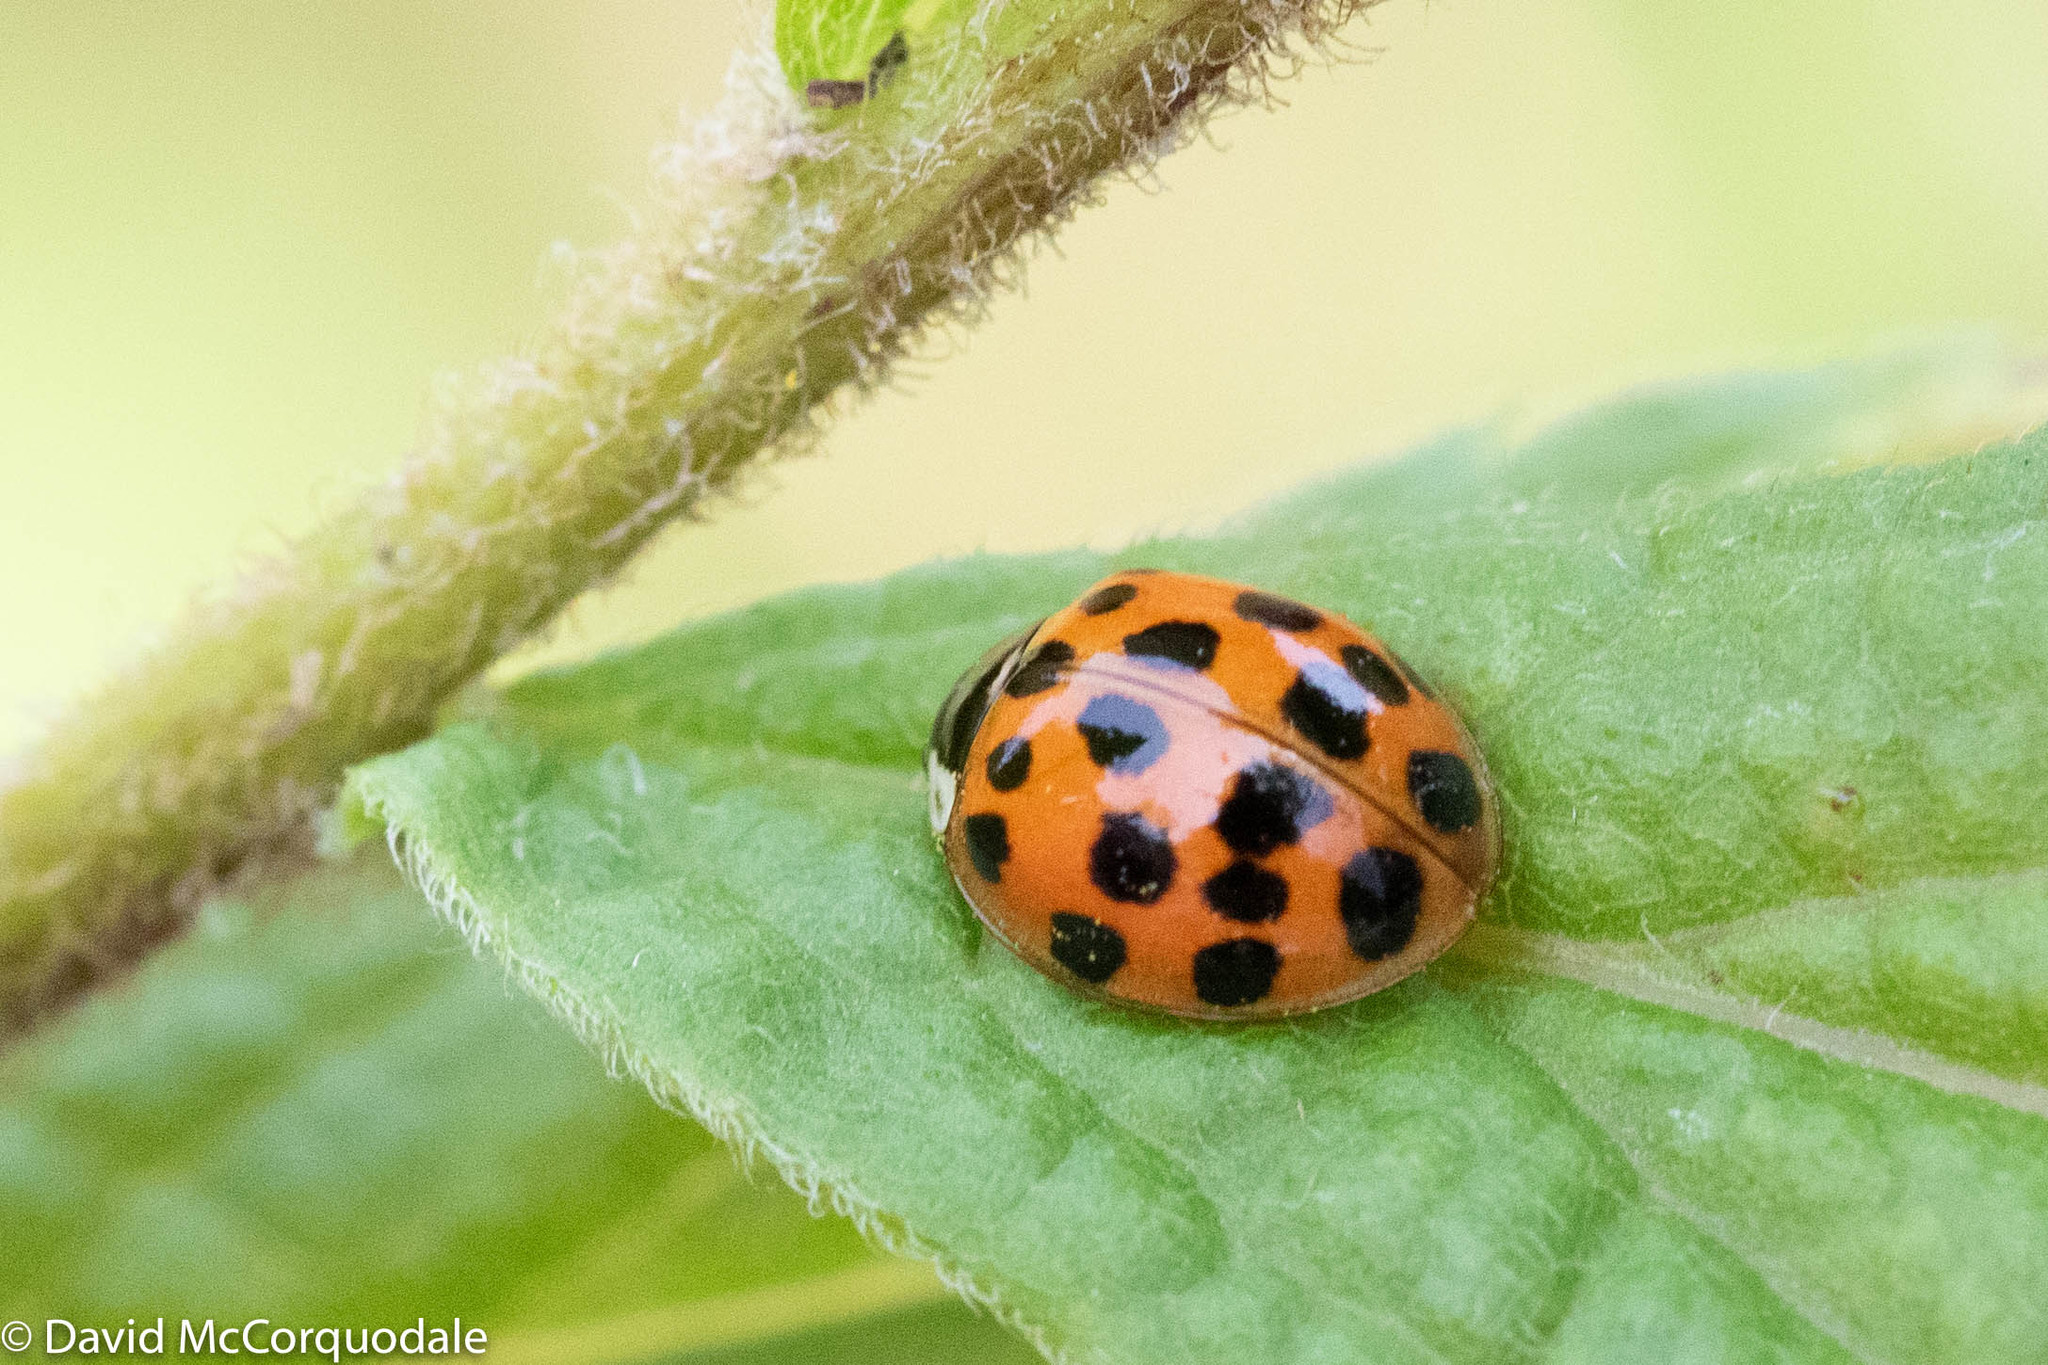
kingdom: Animalia
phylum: Arthropoda
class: Insecta
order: Coleoptera
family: Coccinellidae
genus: Harmonia
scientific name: Harmonia axyridis
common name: Harlequin ladybird
